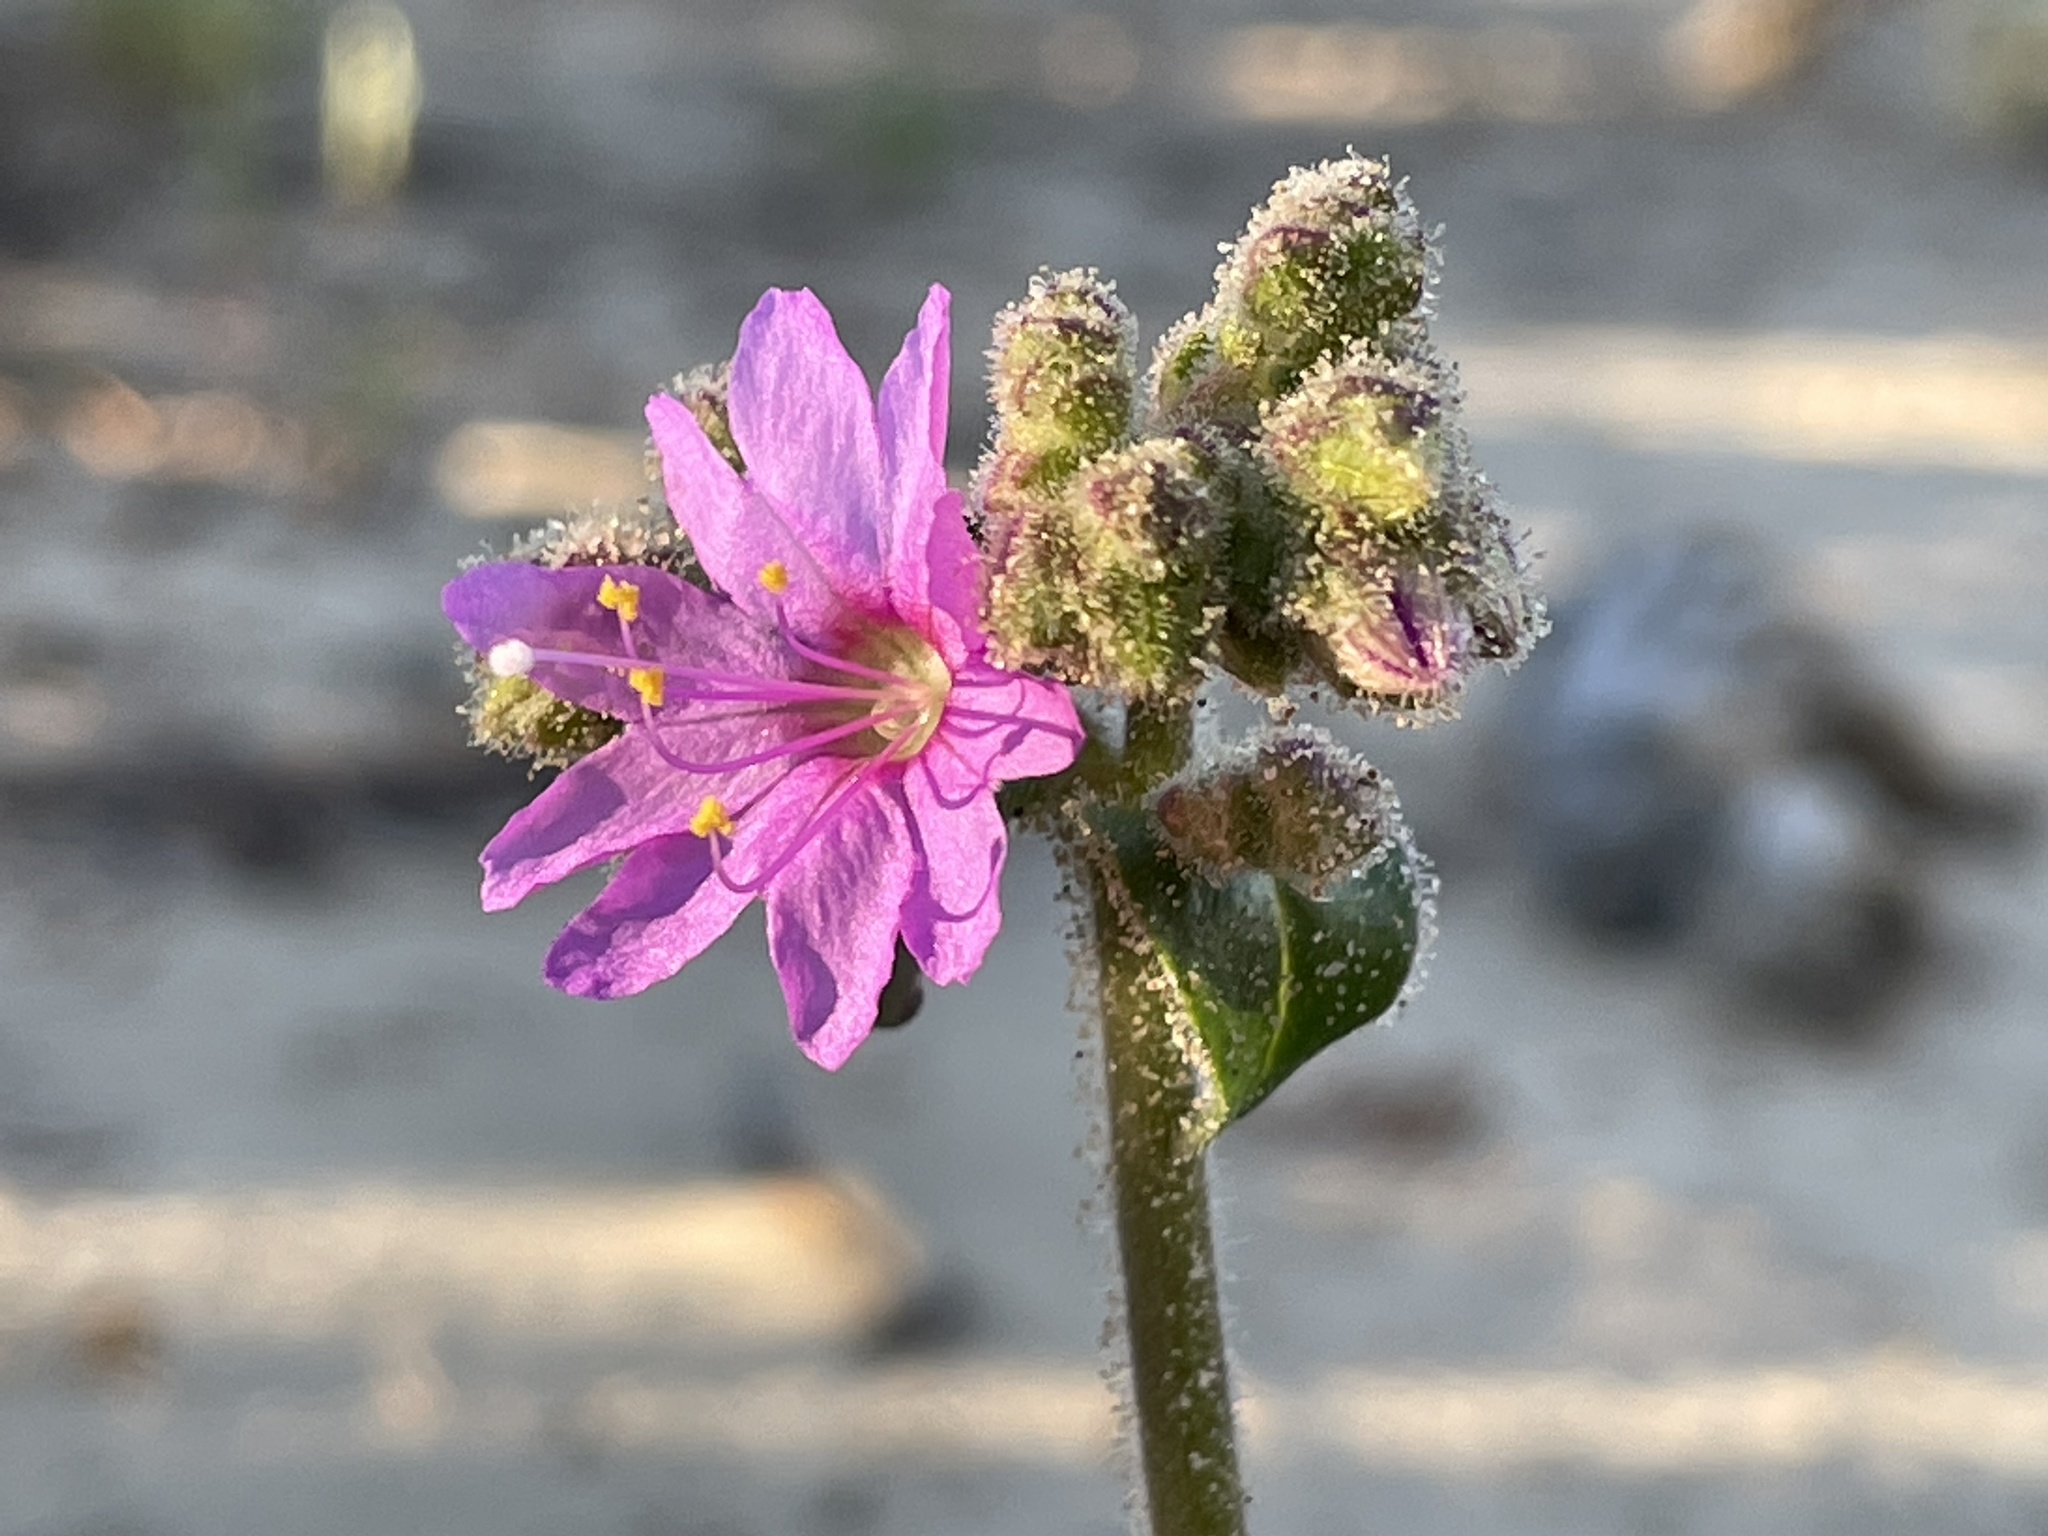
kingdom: Plantae
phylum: Tracheophyta
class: Magnoliopsida
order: Caryophyllales
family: Nyctaginaceae
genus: Mirabilis
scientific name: Mirabilis comata
